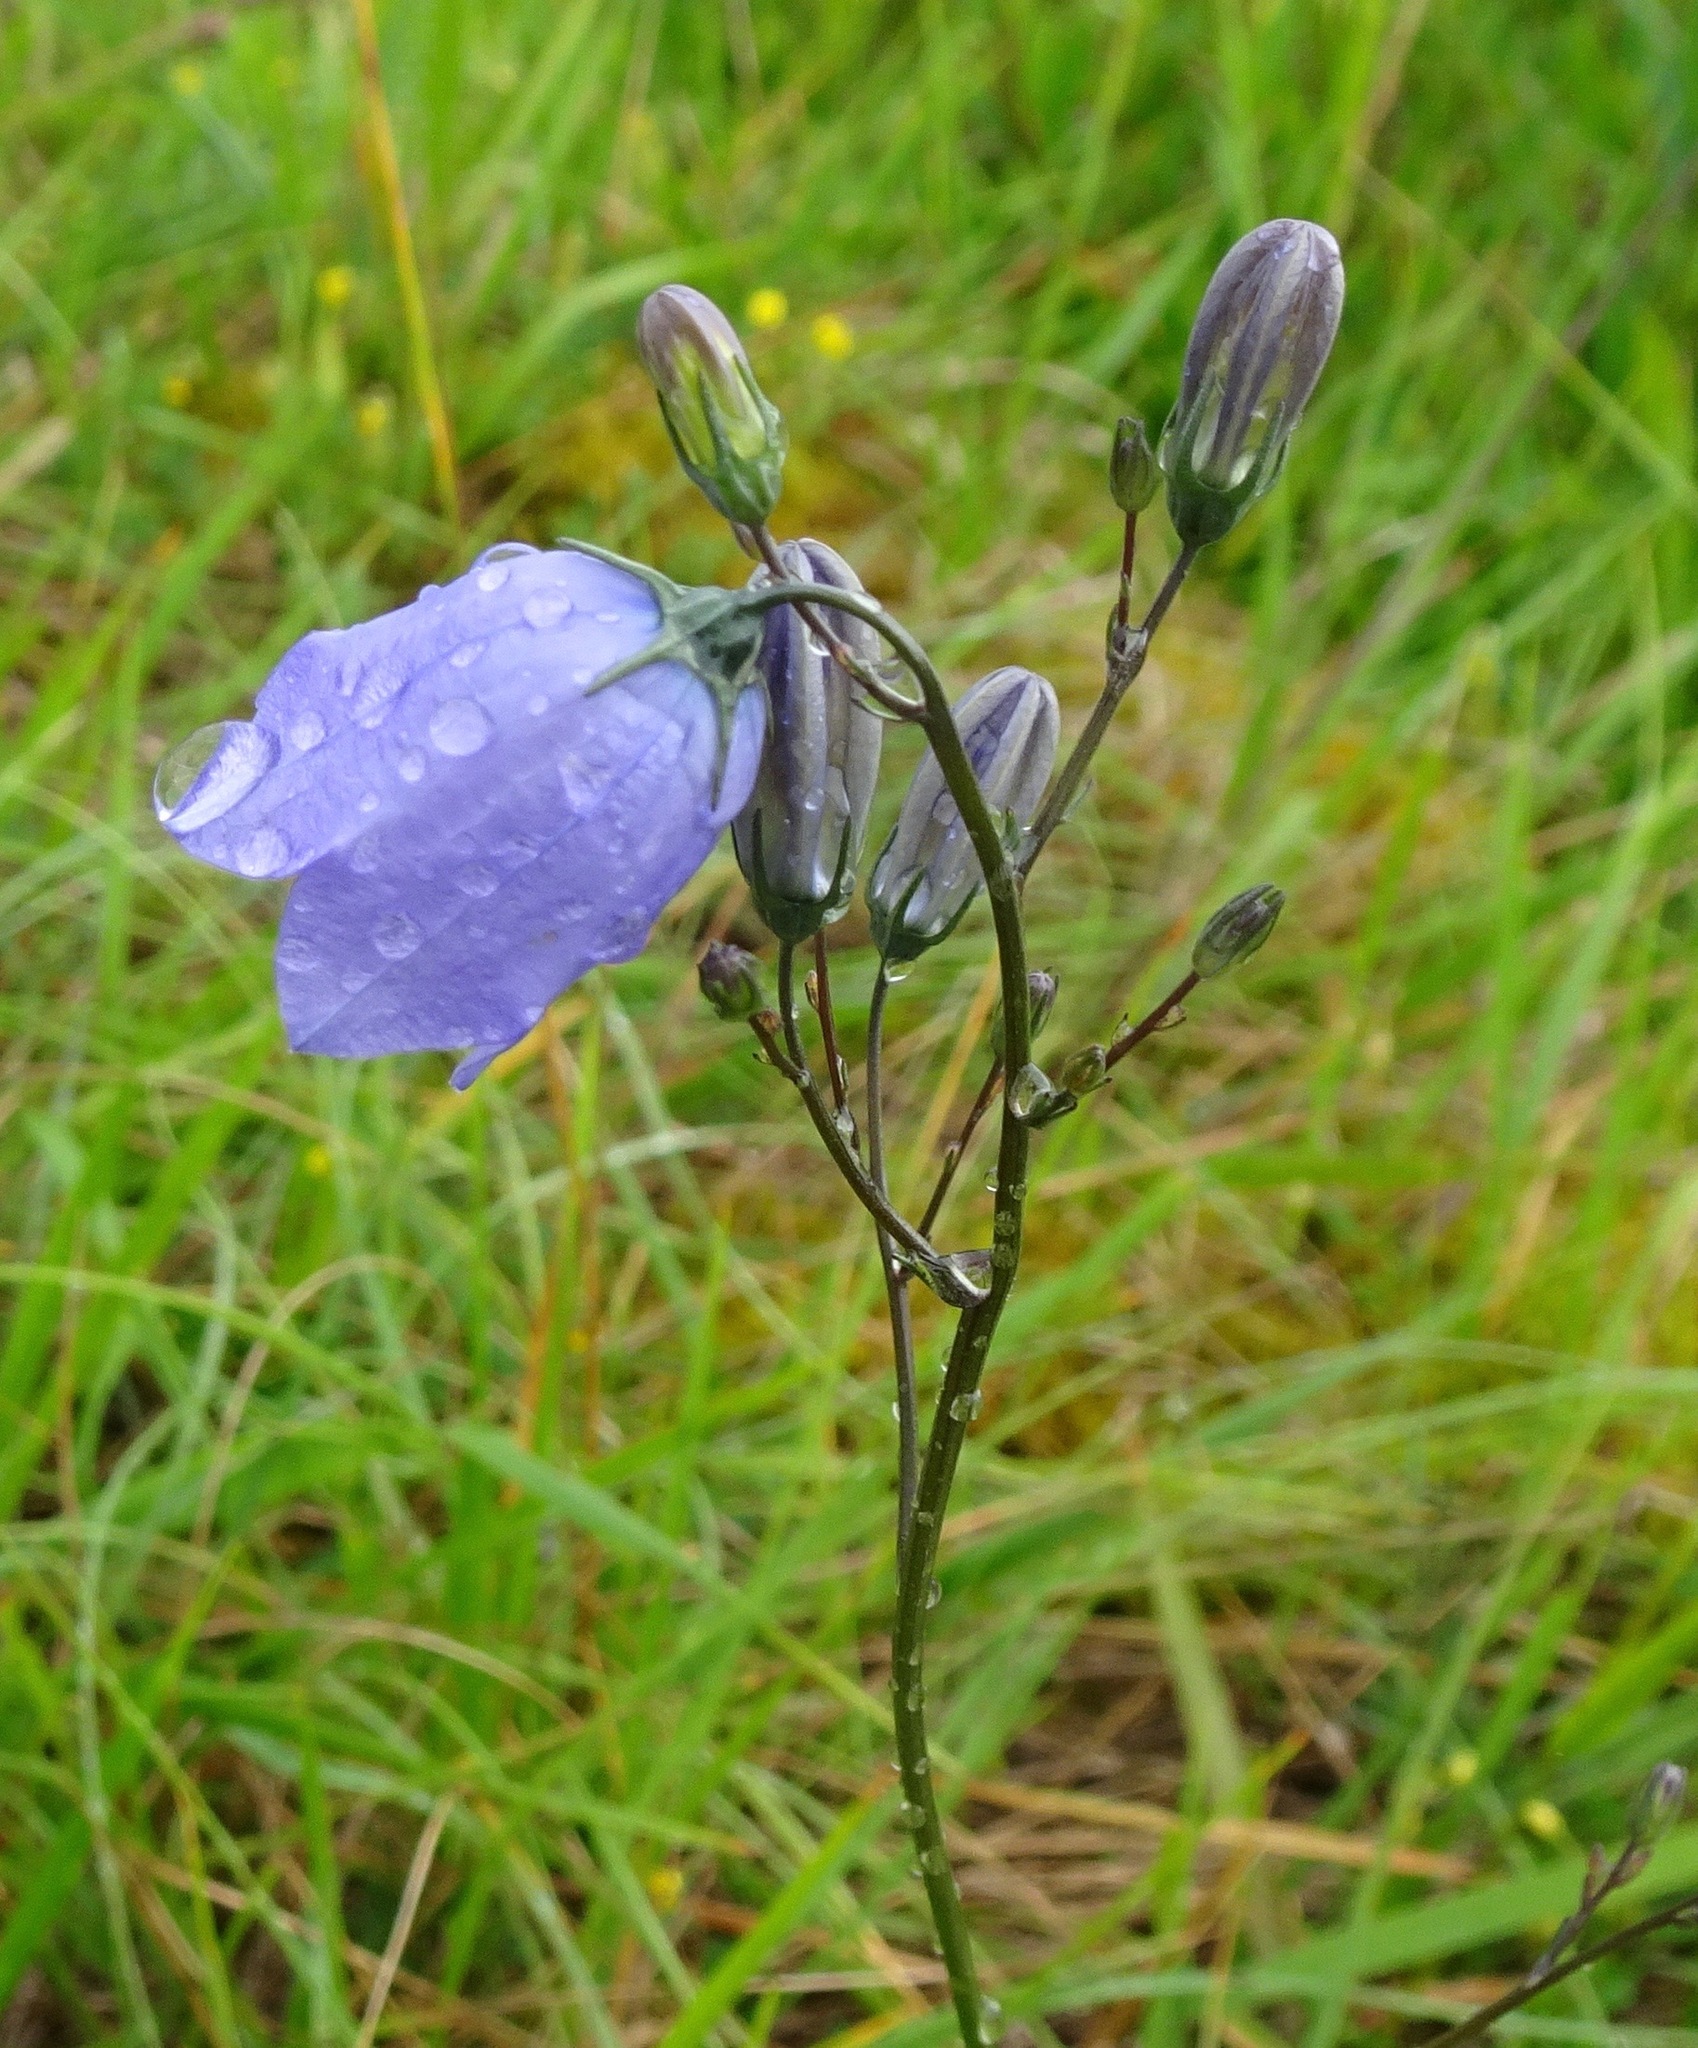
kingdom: Plantae
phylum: Tracheophyta
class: Magnoliopsida
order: Asterales
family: Campanulaceae
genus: Campanula
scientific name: Campanula rotundifolia
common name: Harebell
